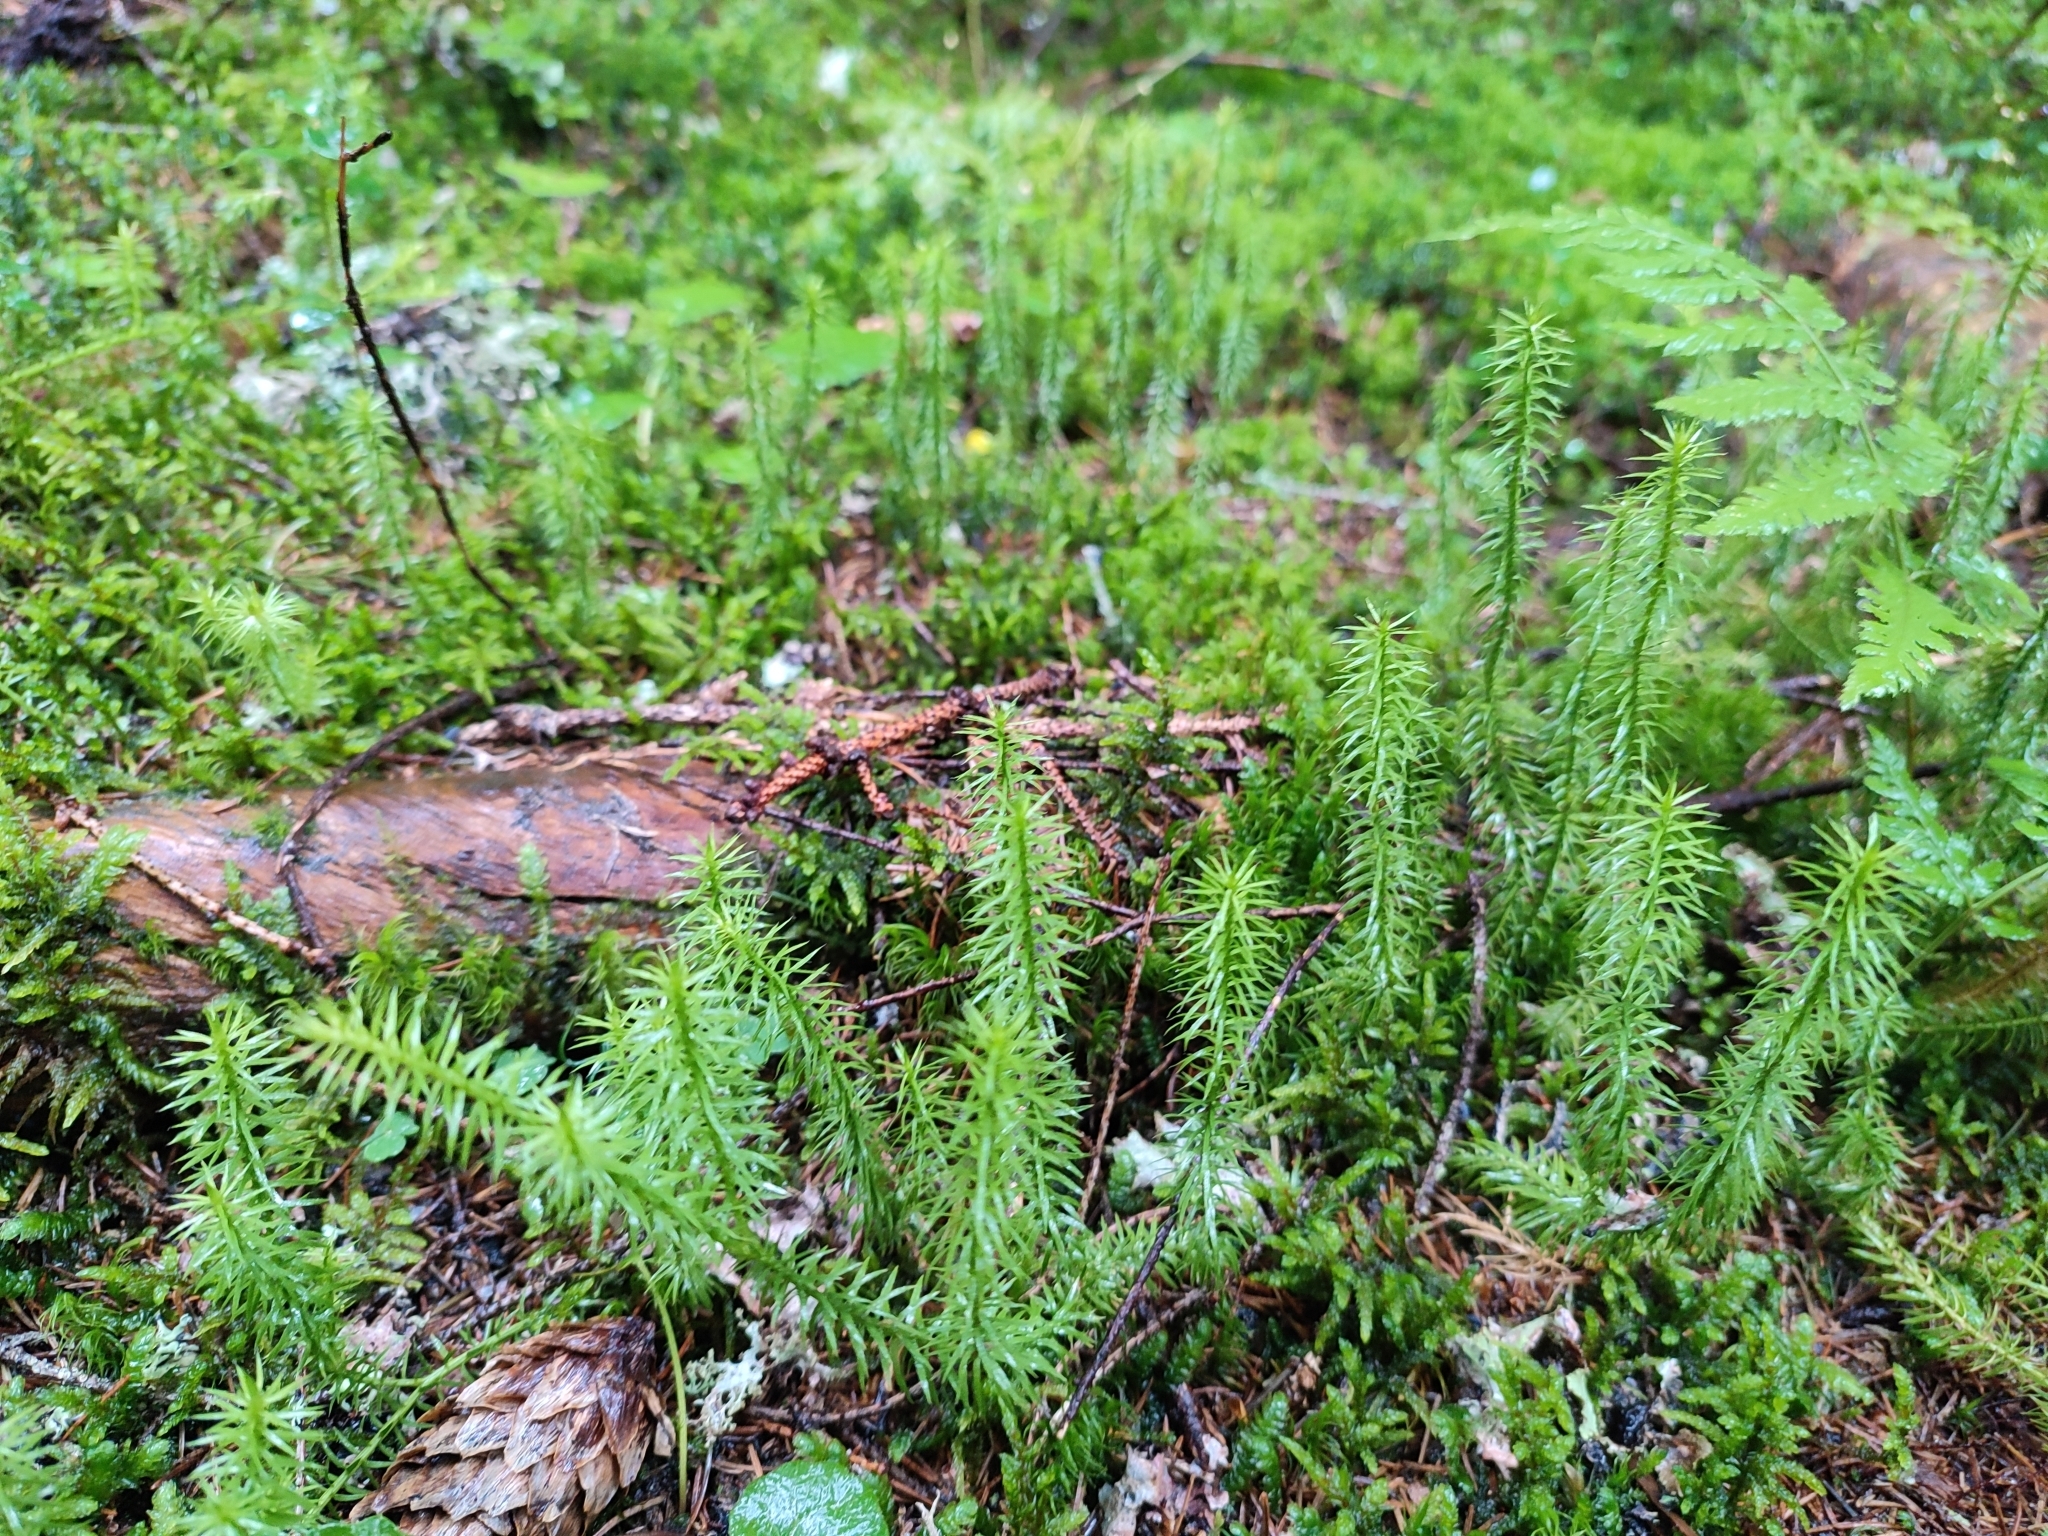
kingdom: Plantae
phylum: Tracheophyta
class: Lycopodiopsida
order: Lycopodiales
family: Lycopodiaceae
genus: Spinulum
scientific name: Spinulum annotinum
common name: Interrupted club-moss
